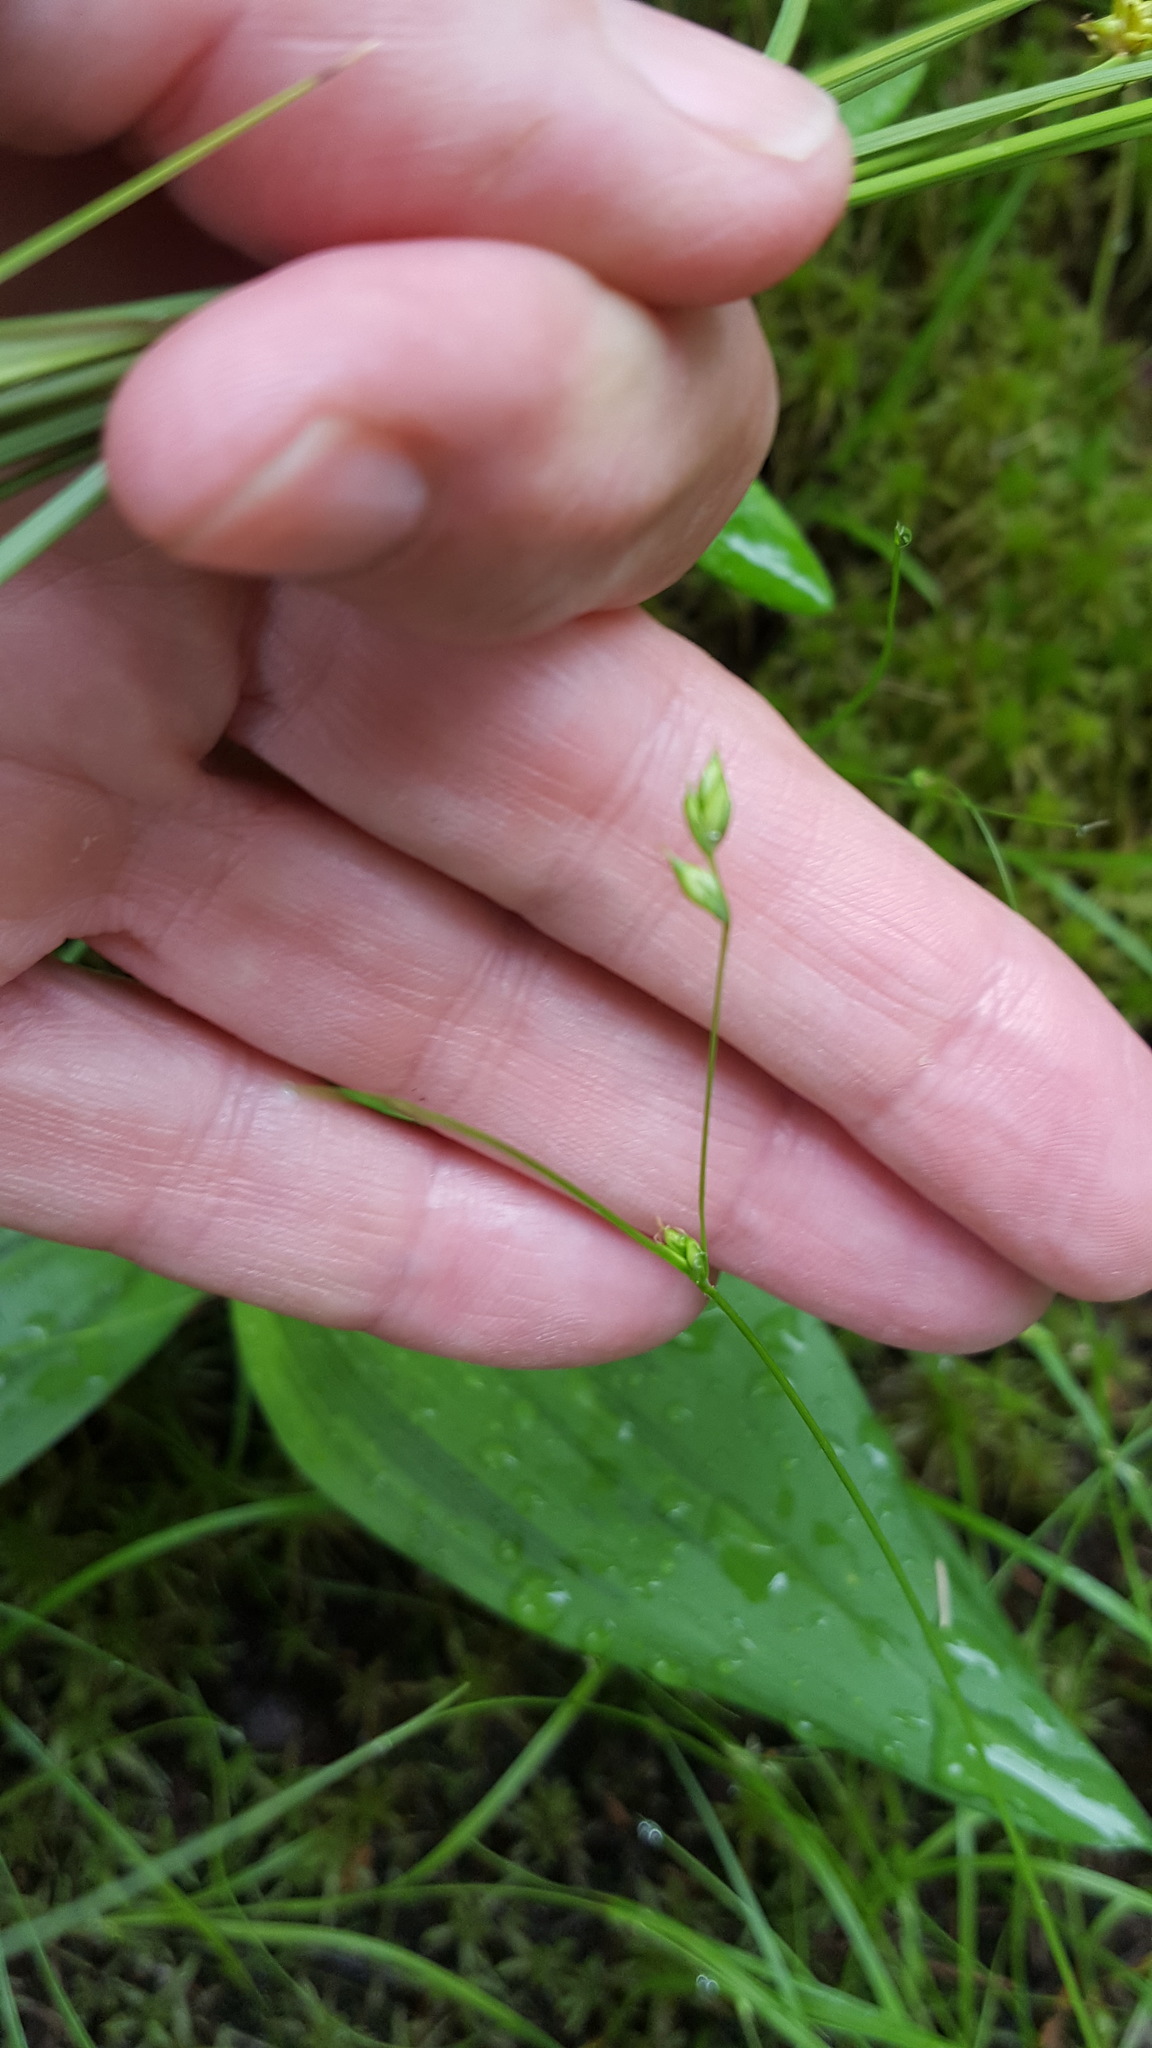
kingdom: Plantae
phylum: Tracheophyta
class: Liliopsida
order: Poales
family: Cyperaceae
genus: Carex
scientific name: Carex trisperma
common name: Three-seeded sedge
